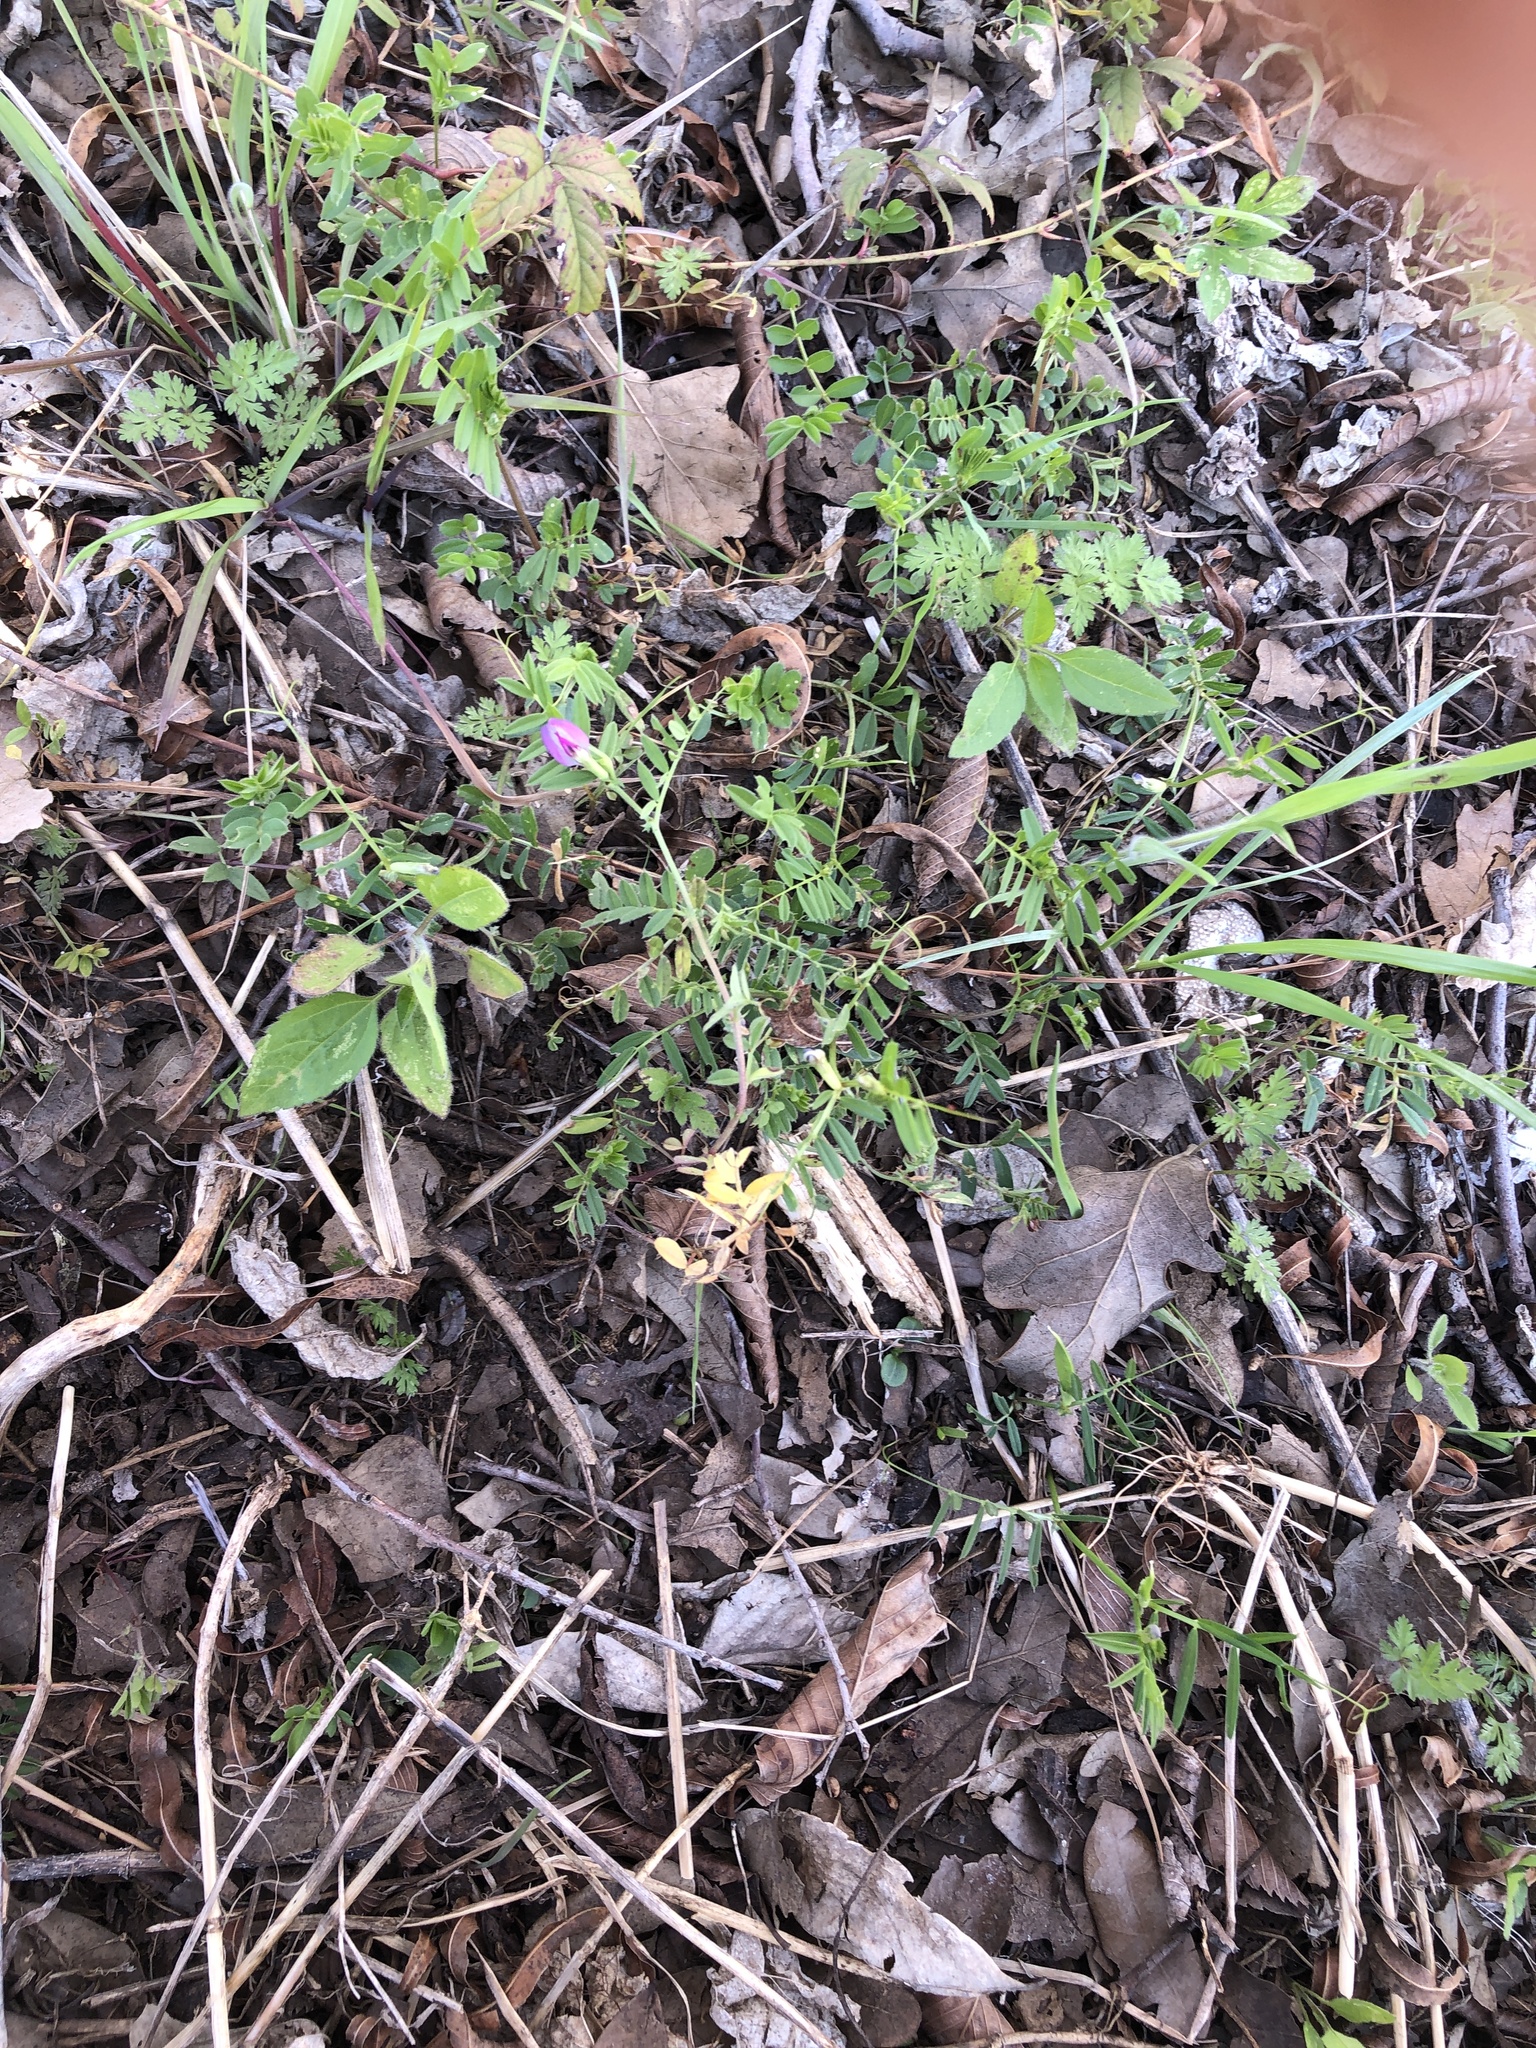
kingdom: Plantae
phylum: Tracheophyta
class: Magnoliopsida
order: Fabales
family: Fabaceae
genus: Vicia
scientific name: Vicia sativa
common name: Garden vetch
